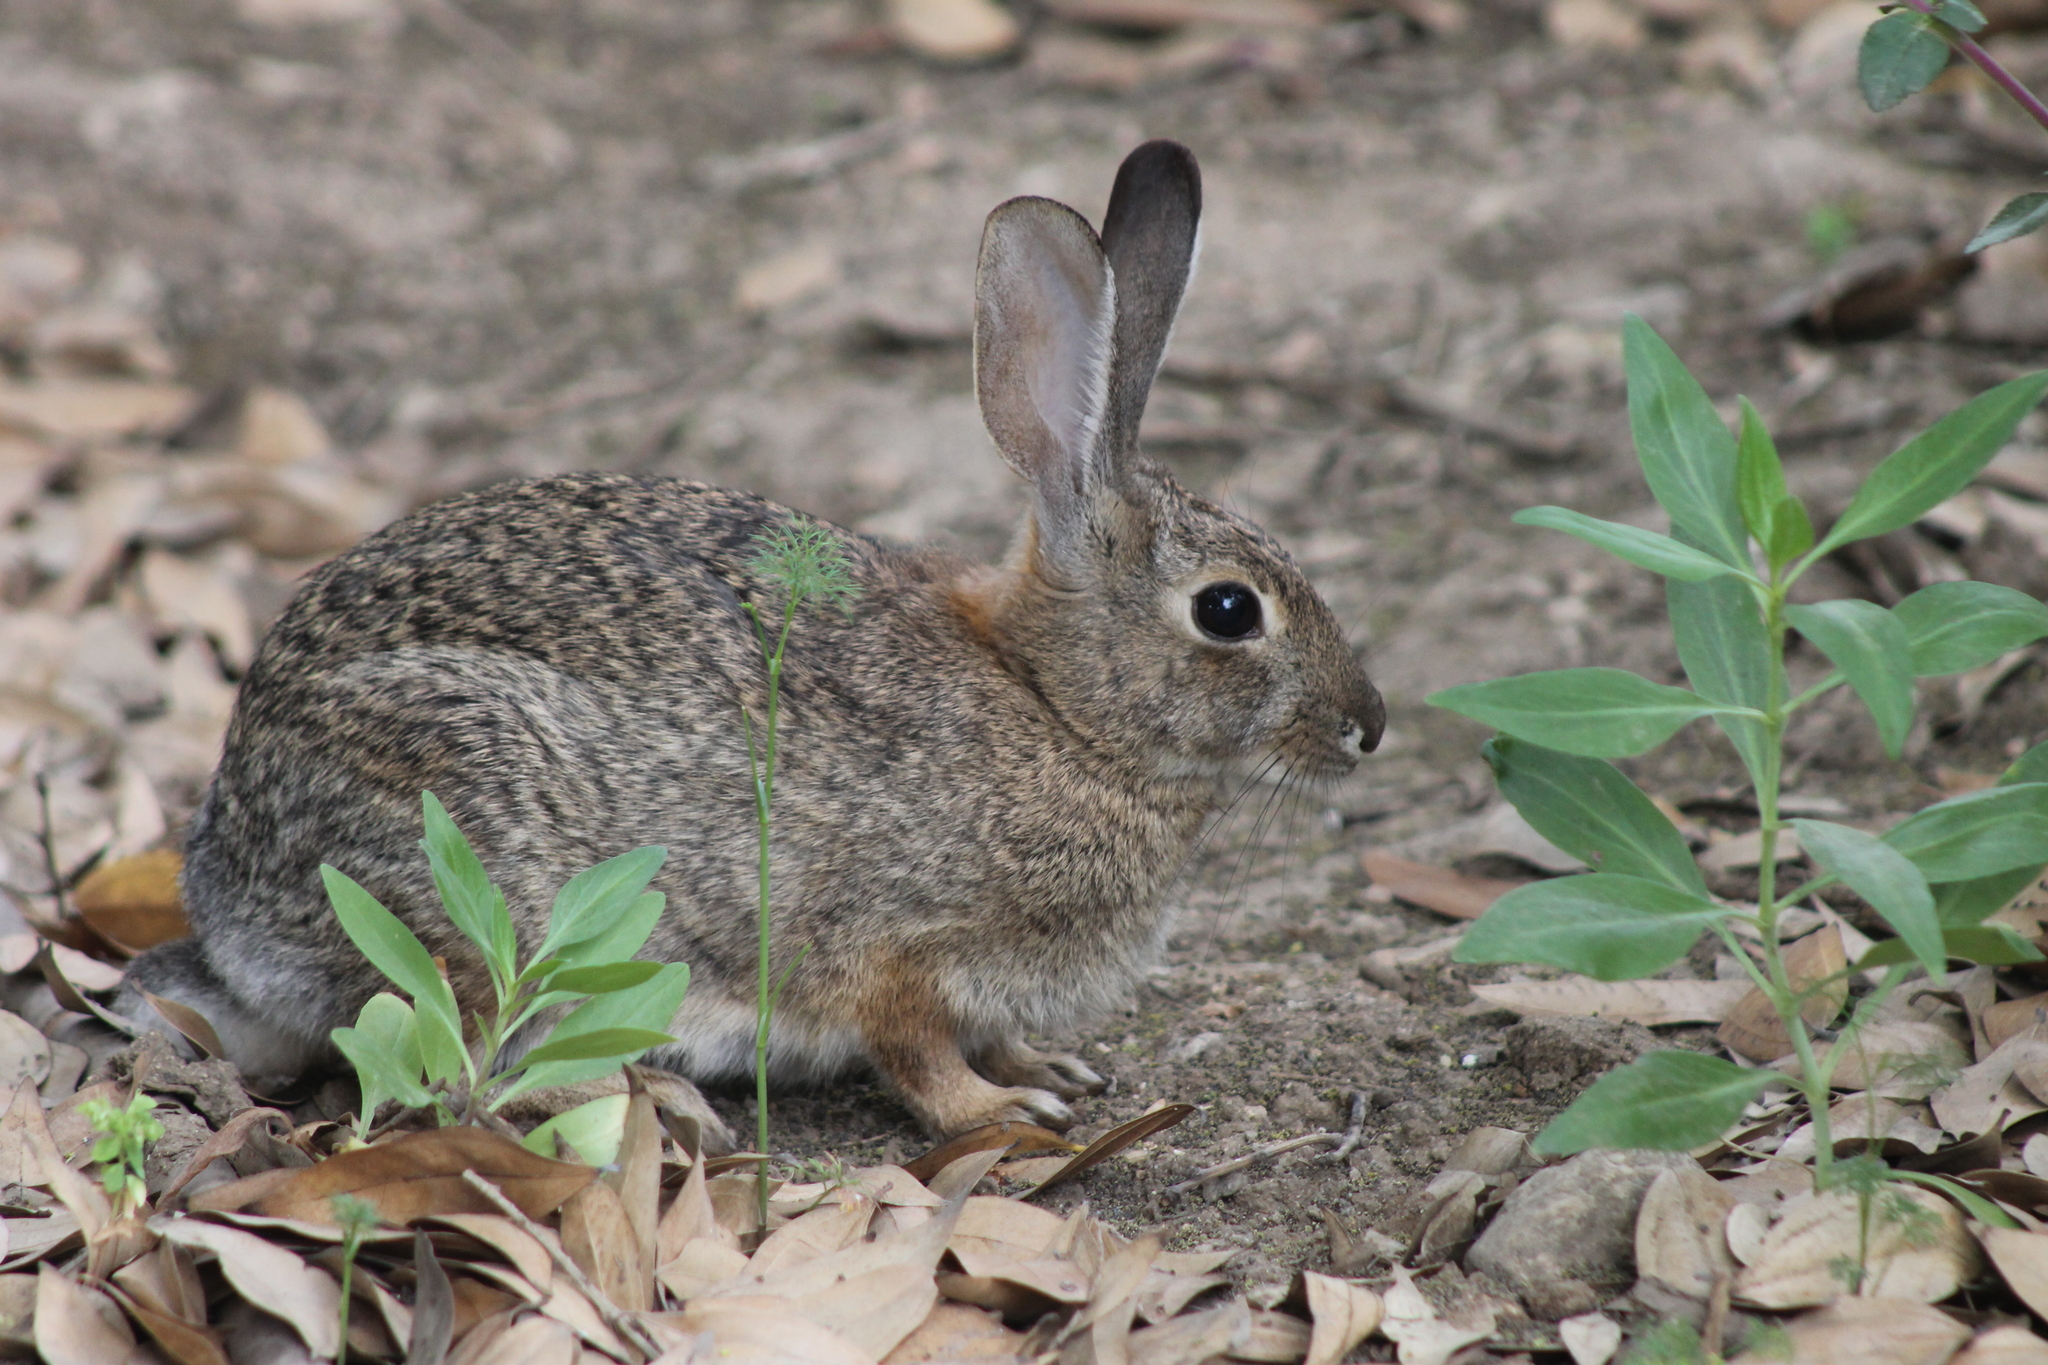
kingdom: Animalia
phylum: Chordata
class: Mammalia
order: Lagomorpha
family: Leporidae
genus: Sylvilagus
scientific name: Sylvilagus audubonii
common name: Desert cottontail
